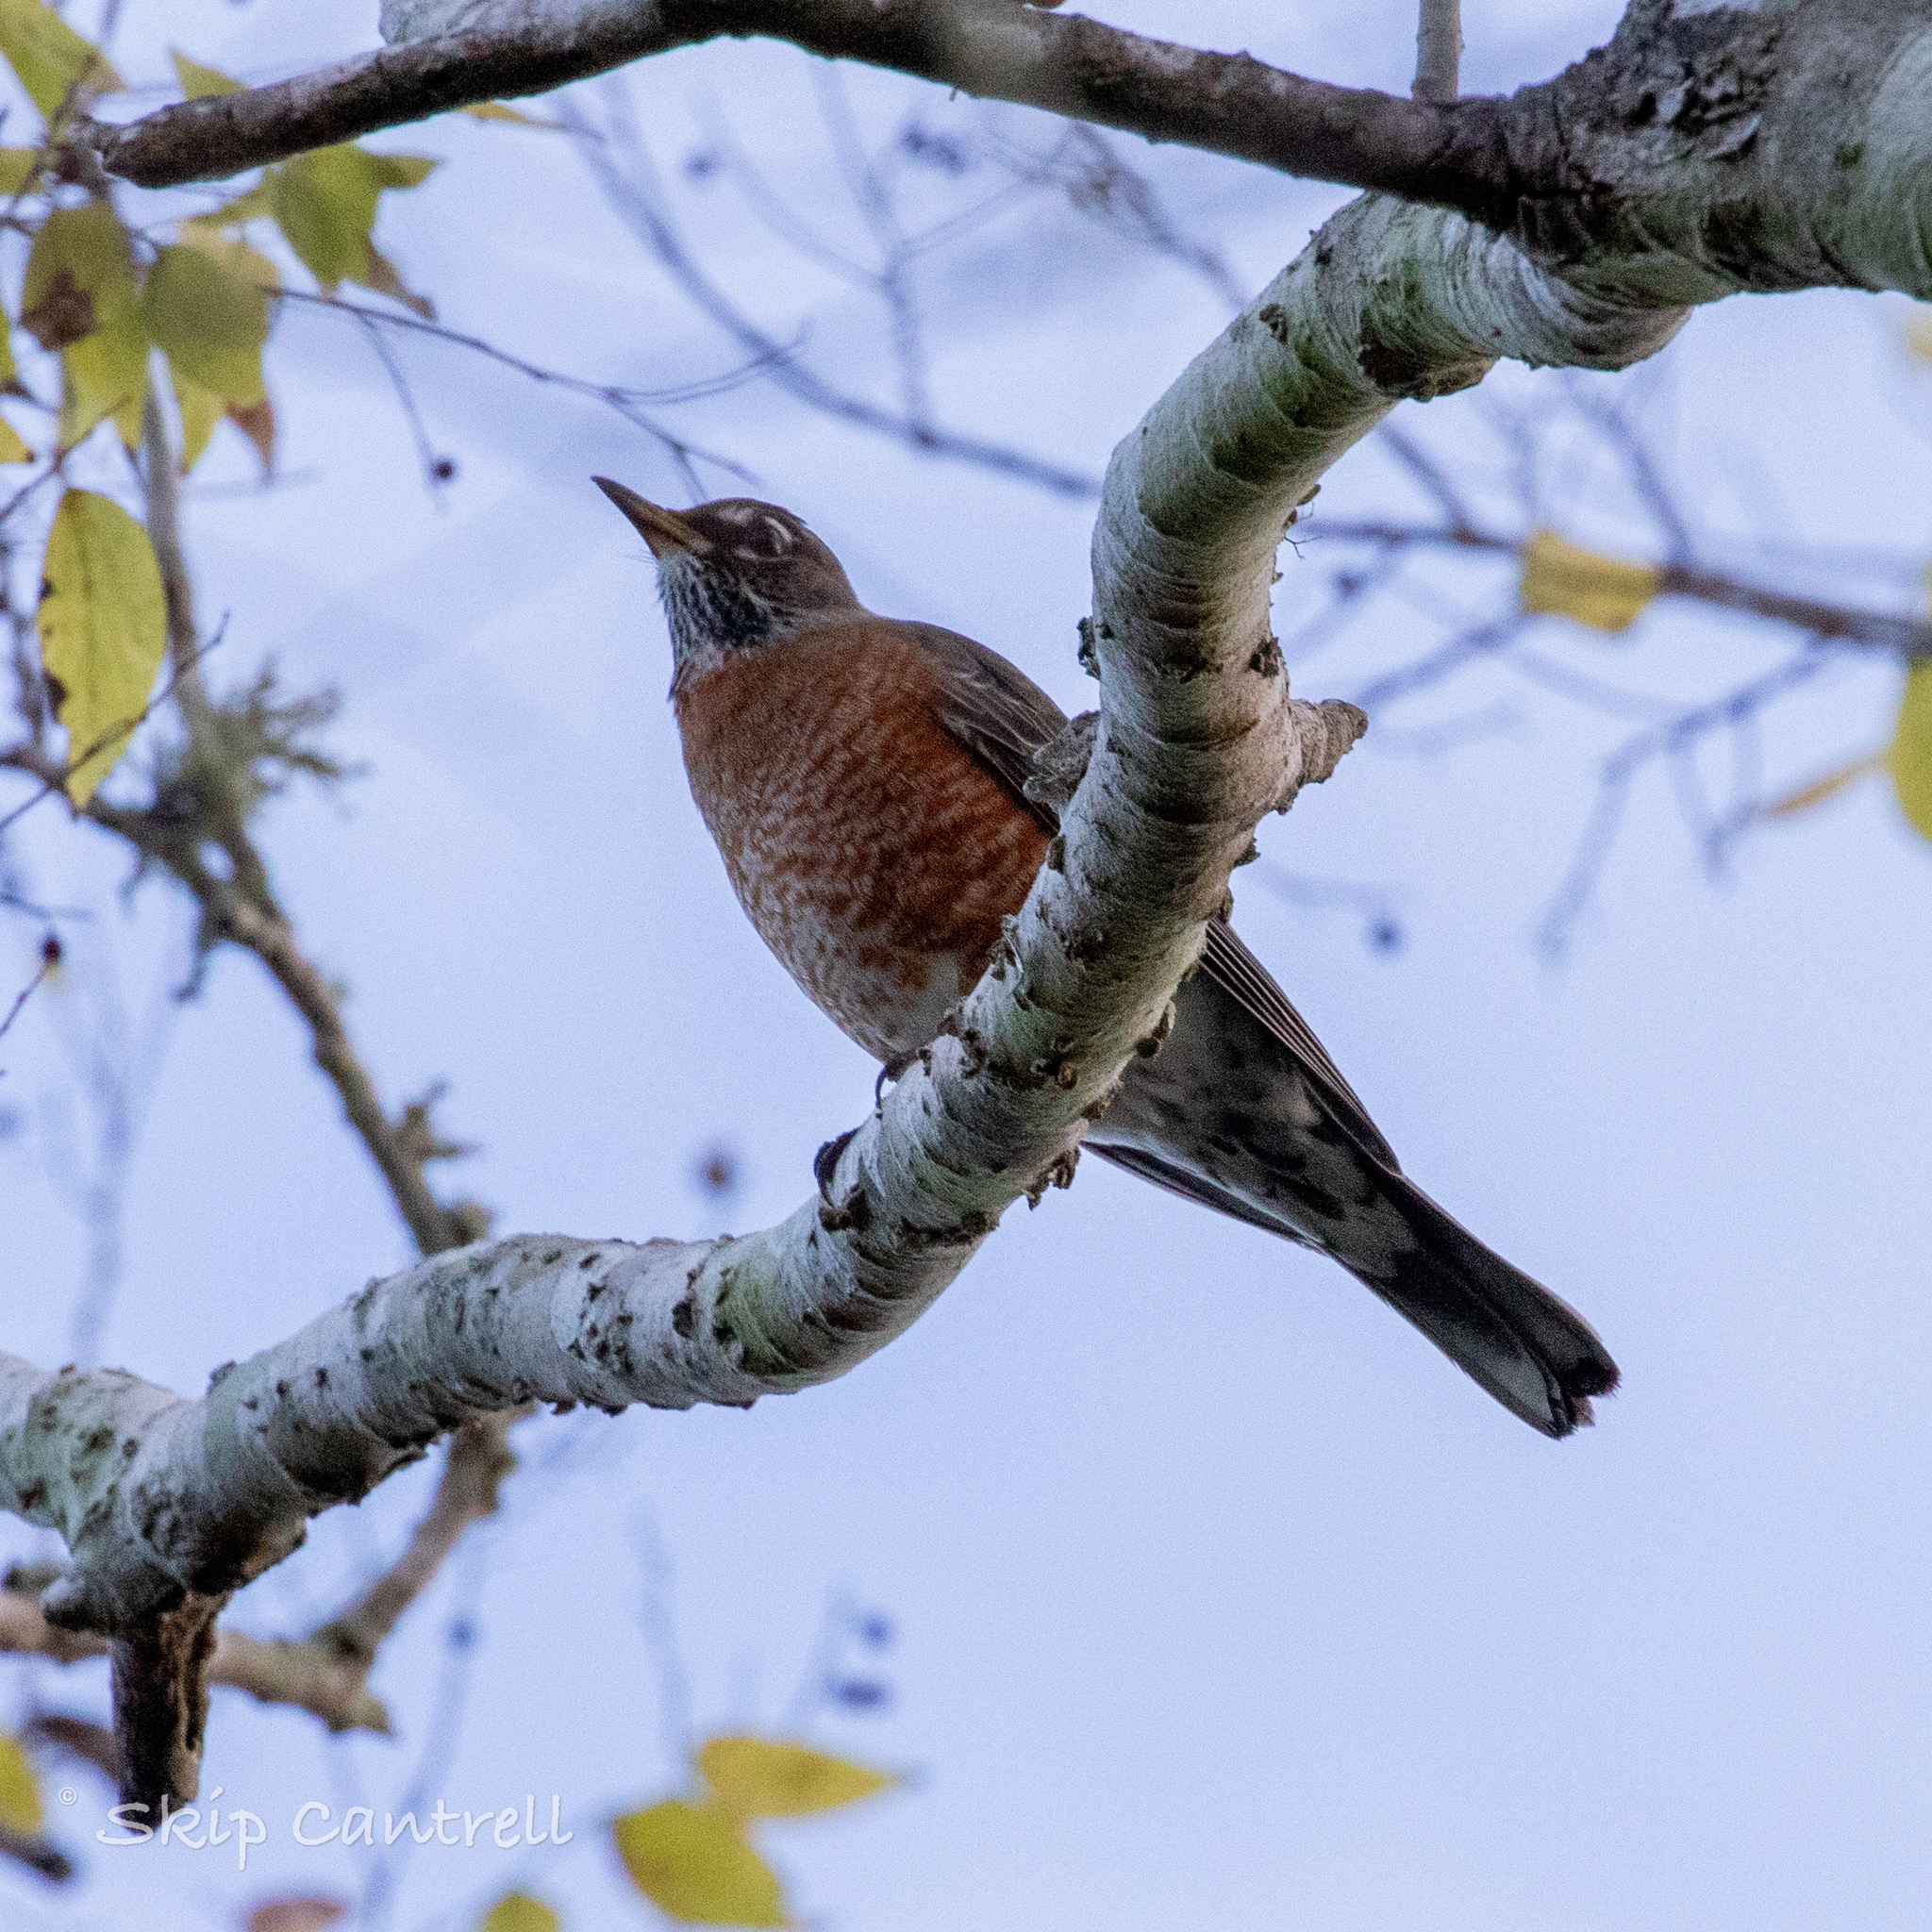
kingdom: Animalia
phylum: Chordata
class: Aves
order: Passeriformes
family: Turdidae
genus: Turdus
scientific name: Turdus migratorius
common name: American robin
